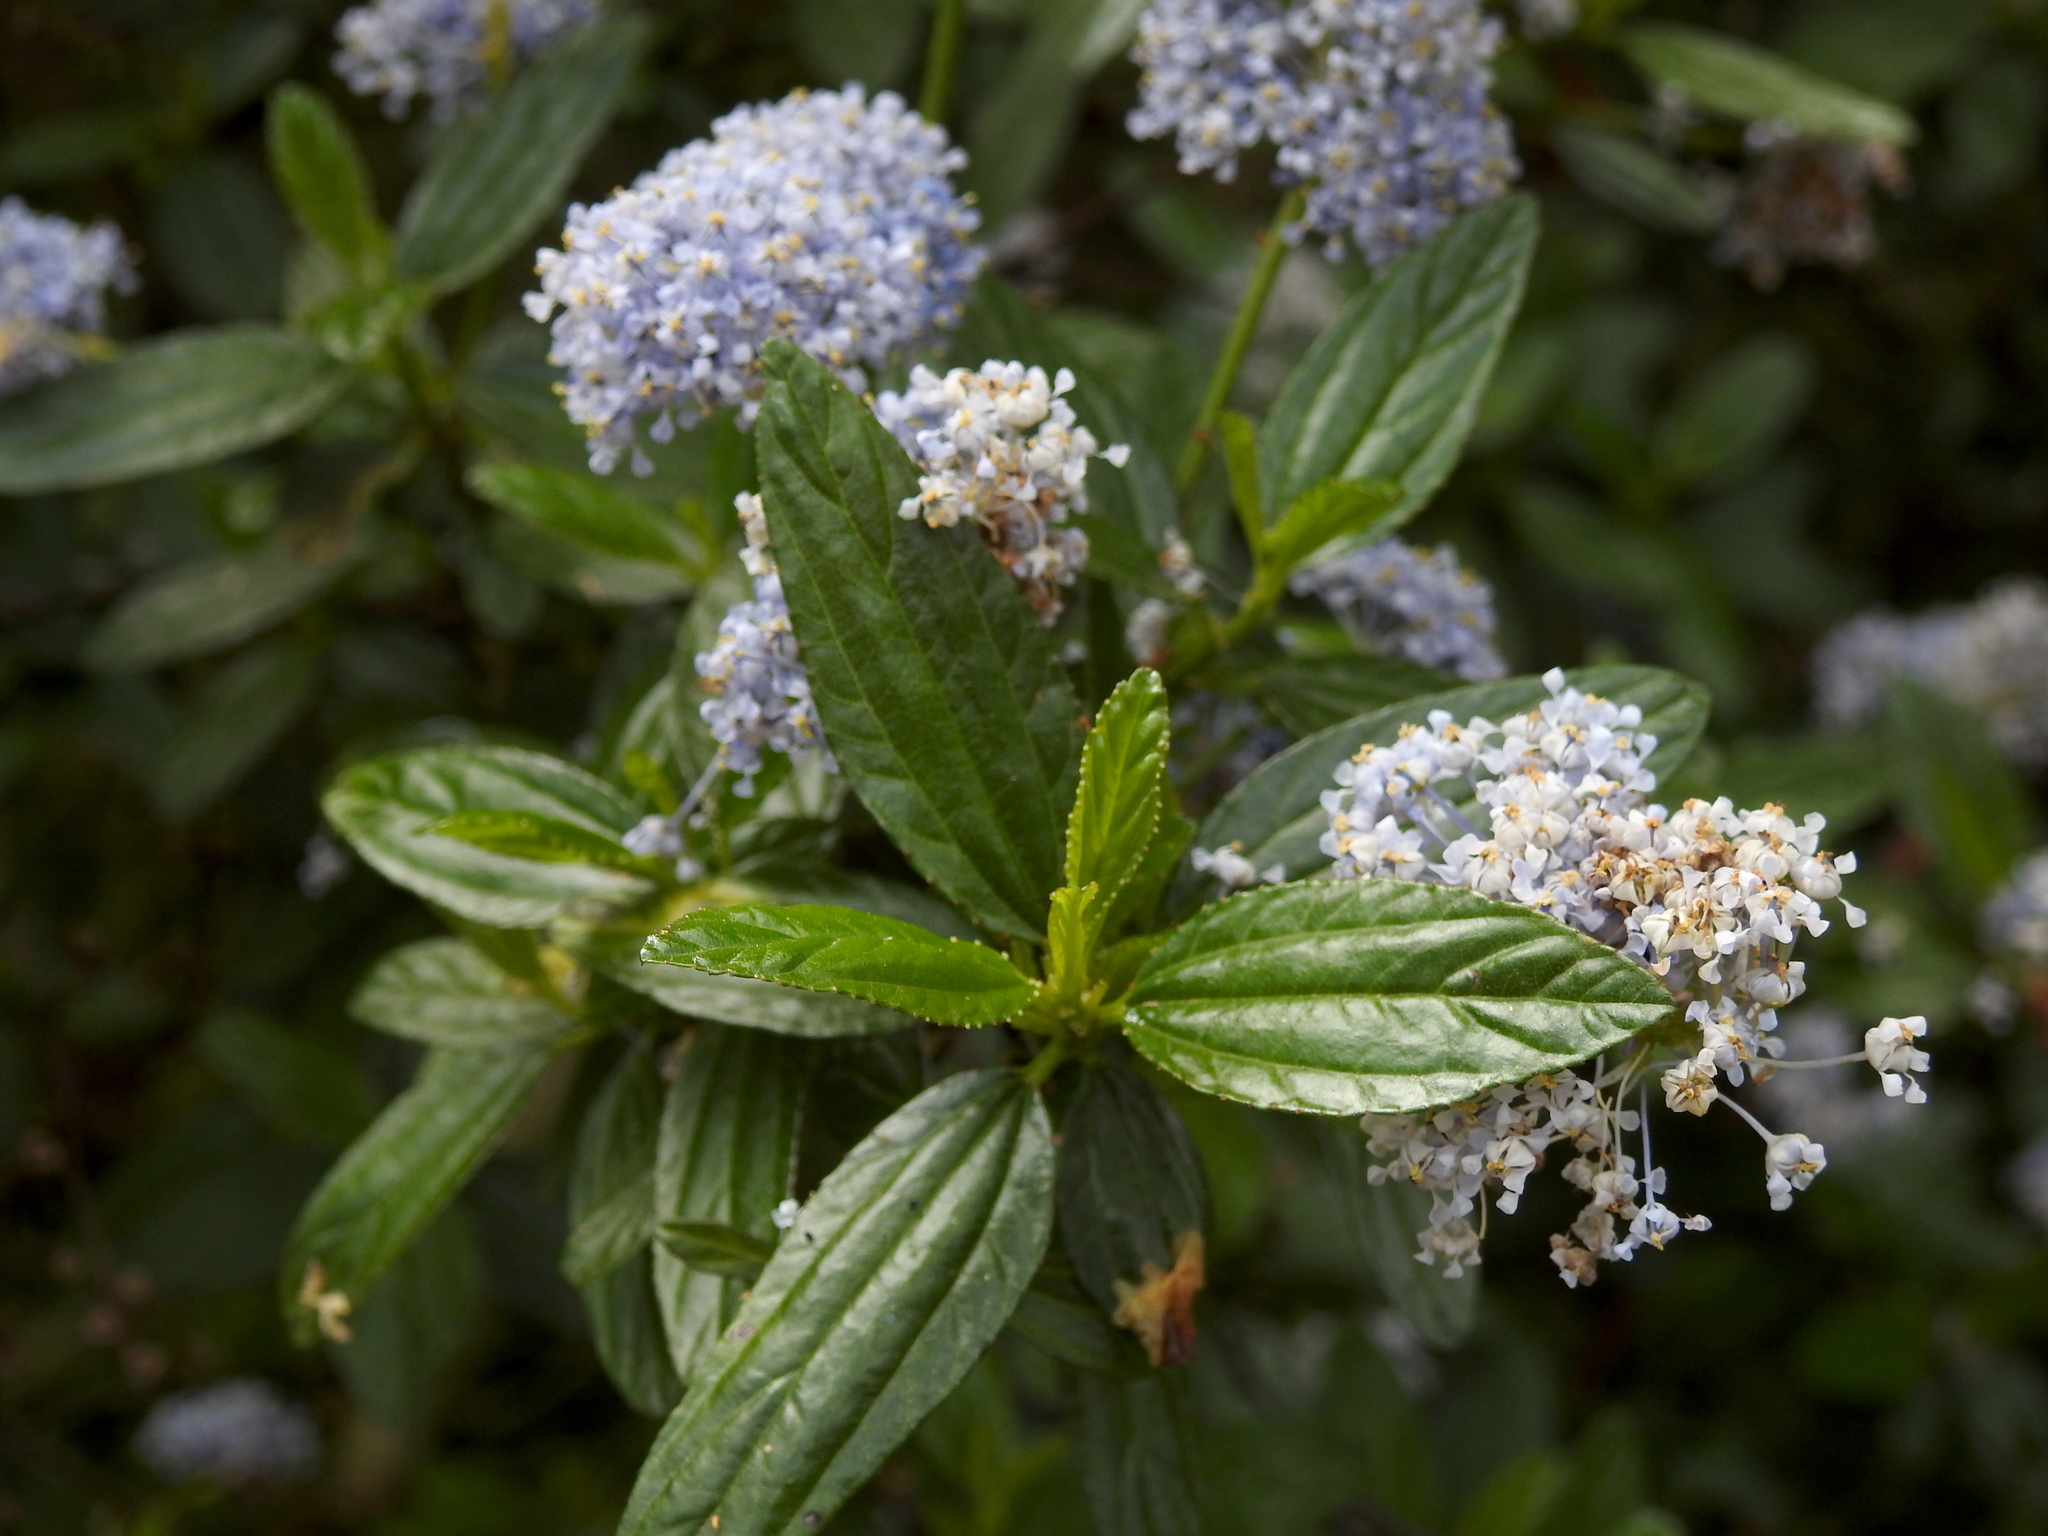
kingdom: Plantae
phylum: Tracheophyta
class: Magnoliopsida
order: Rosales
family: Rhamnaceae
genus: Ceanothus
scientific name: Ceanothus thyrsiflorus
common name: California-lilac
